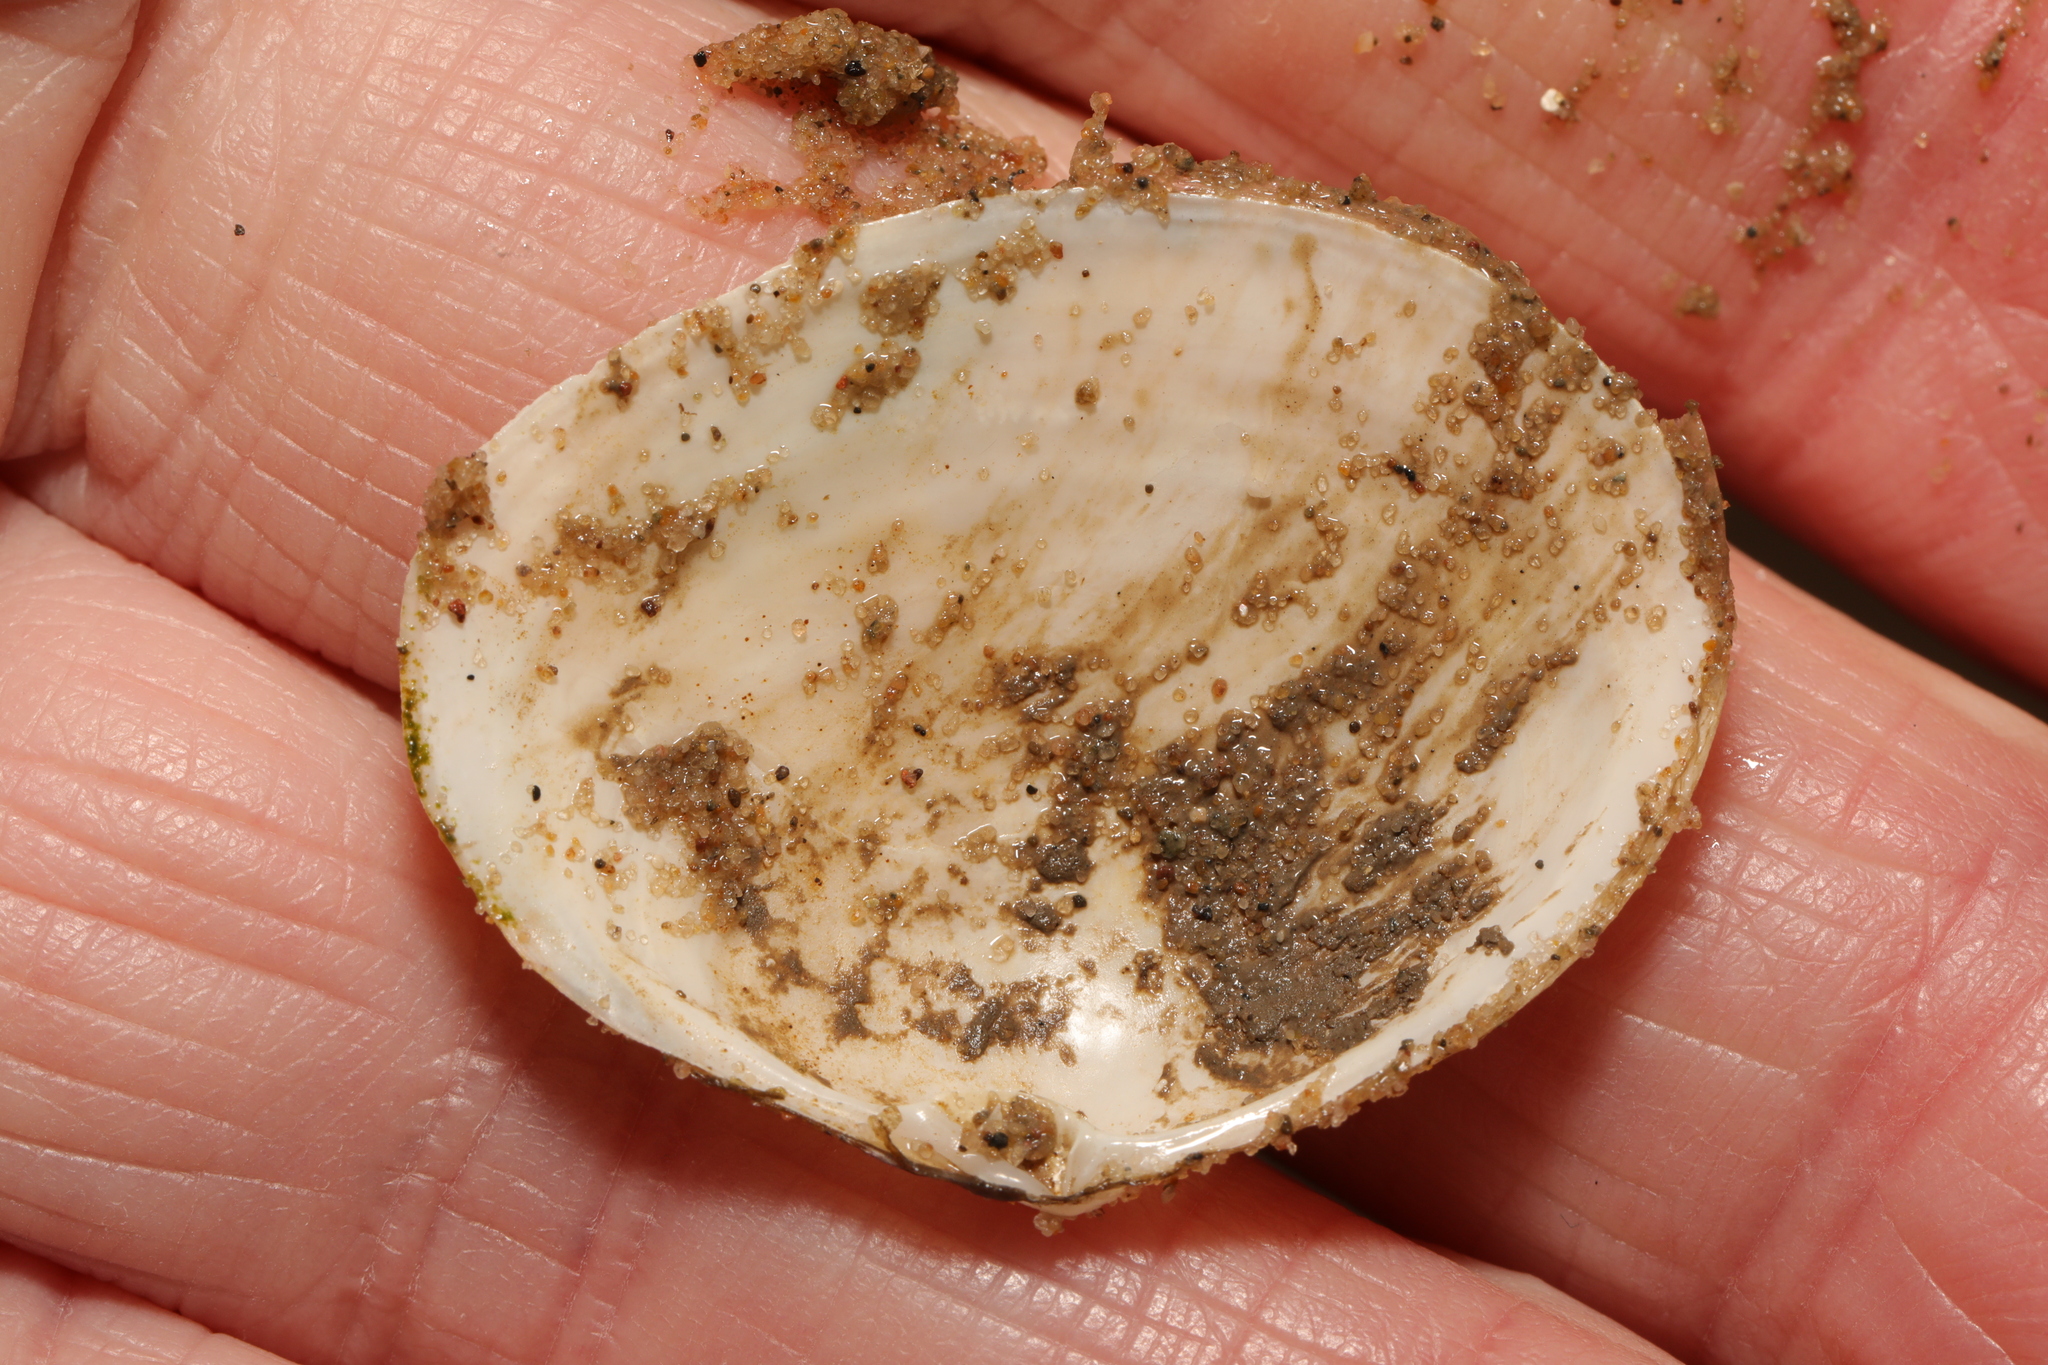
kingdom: Animalia
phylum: Mollusca
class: Bivalvia
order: Cardiida
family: Semelidae
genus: Scrobicularia
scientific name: Scrobicularia plana
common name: Peppery furrow shell
